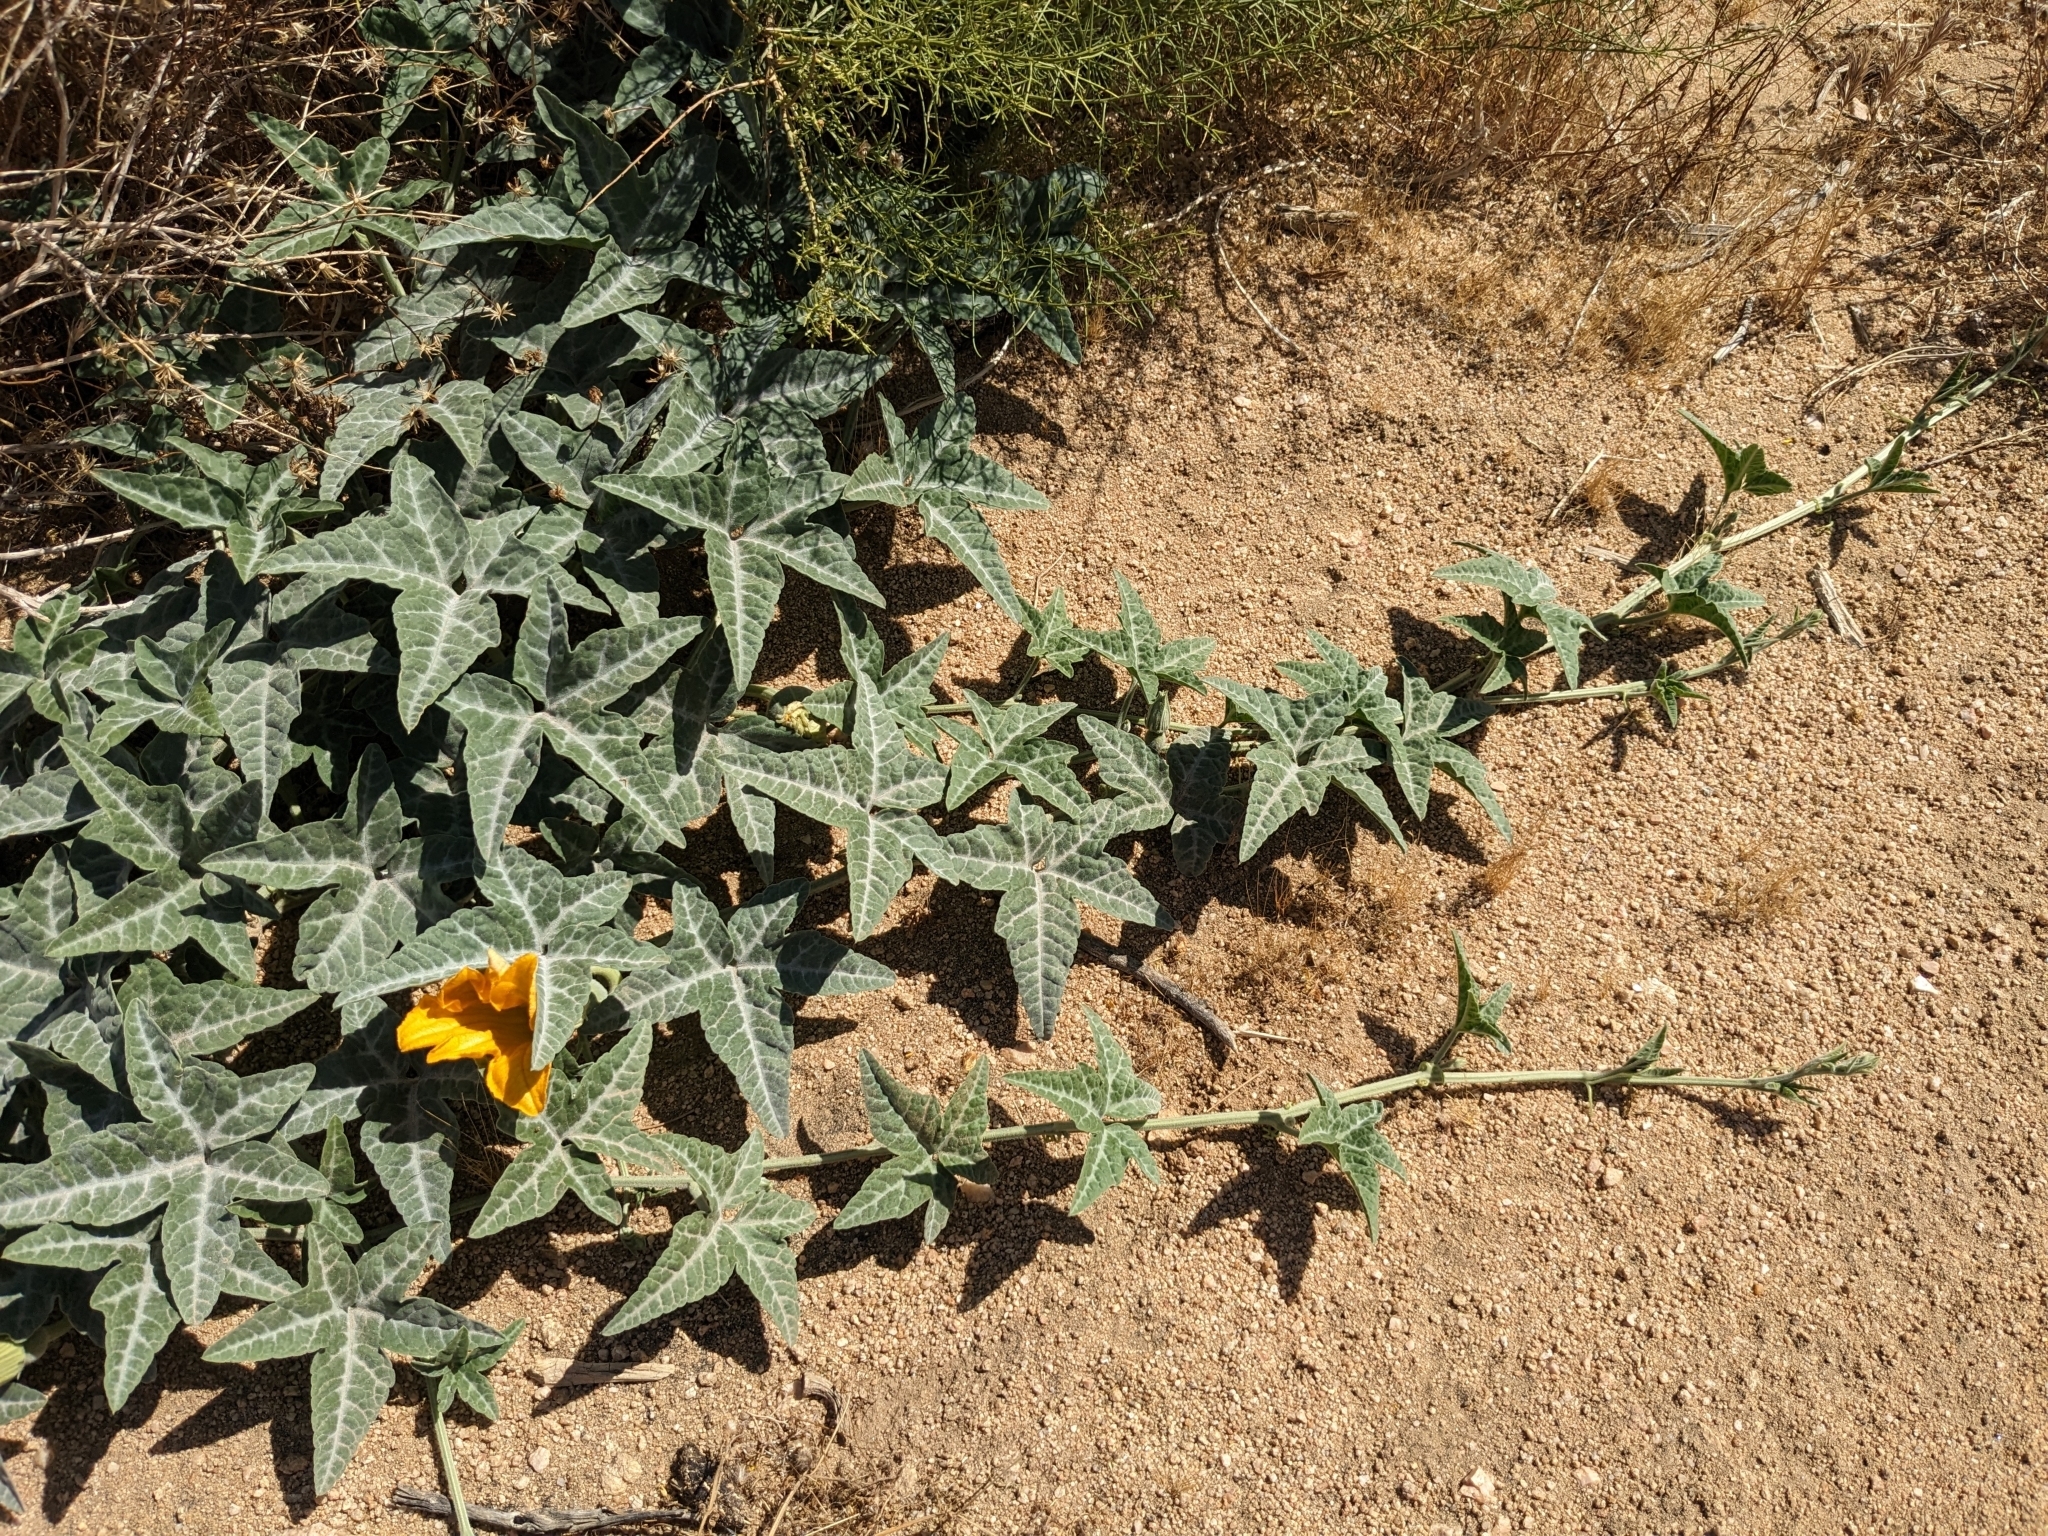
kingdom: Plantae
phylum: Tracheophyta
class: Magnoliopsida
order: Cucurbitales
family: Cucurbitaceae
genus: Cucurbita
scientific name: Cucurbita palmata
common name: Coyote-melon
